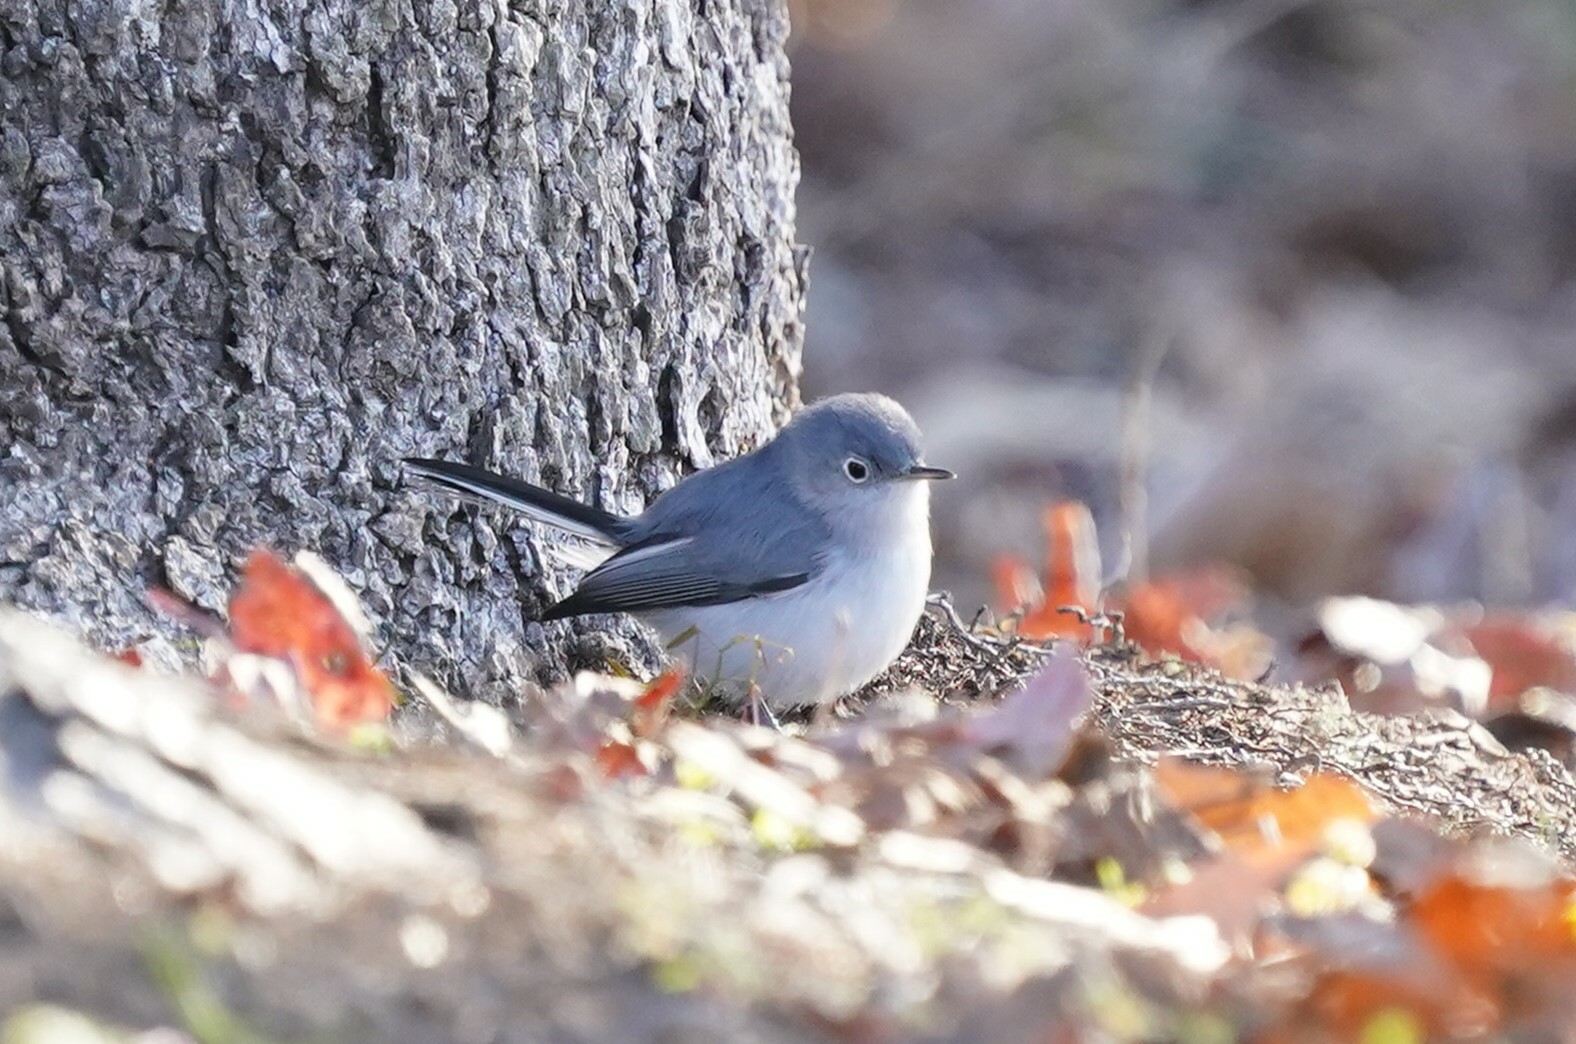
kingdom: Animalia
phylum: Chordata
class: Aves
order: Passeriformes
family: Polioptilidae
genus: Polioptila
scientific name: Polioptila caerulea
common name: Blue-gray gnatcatcher
